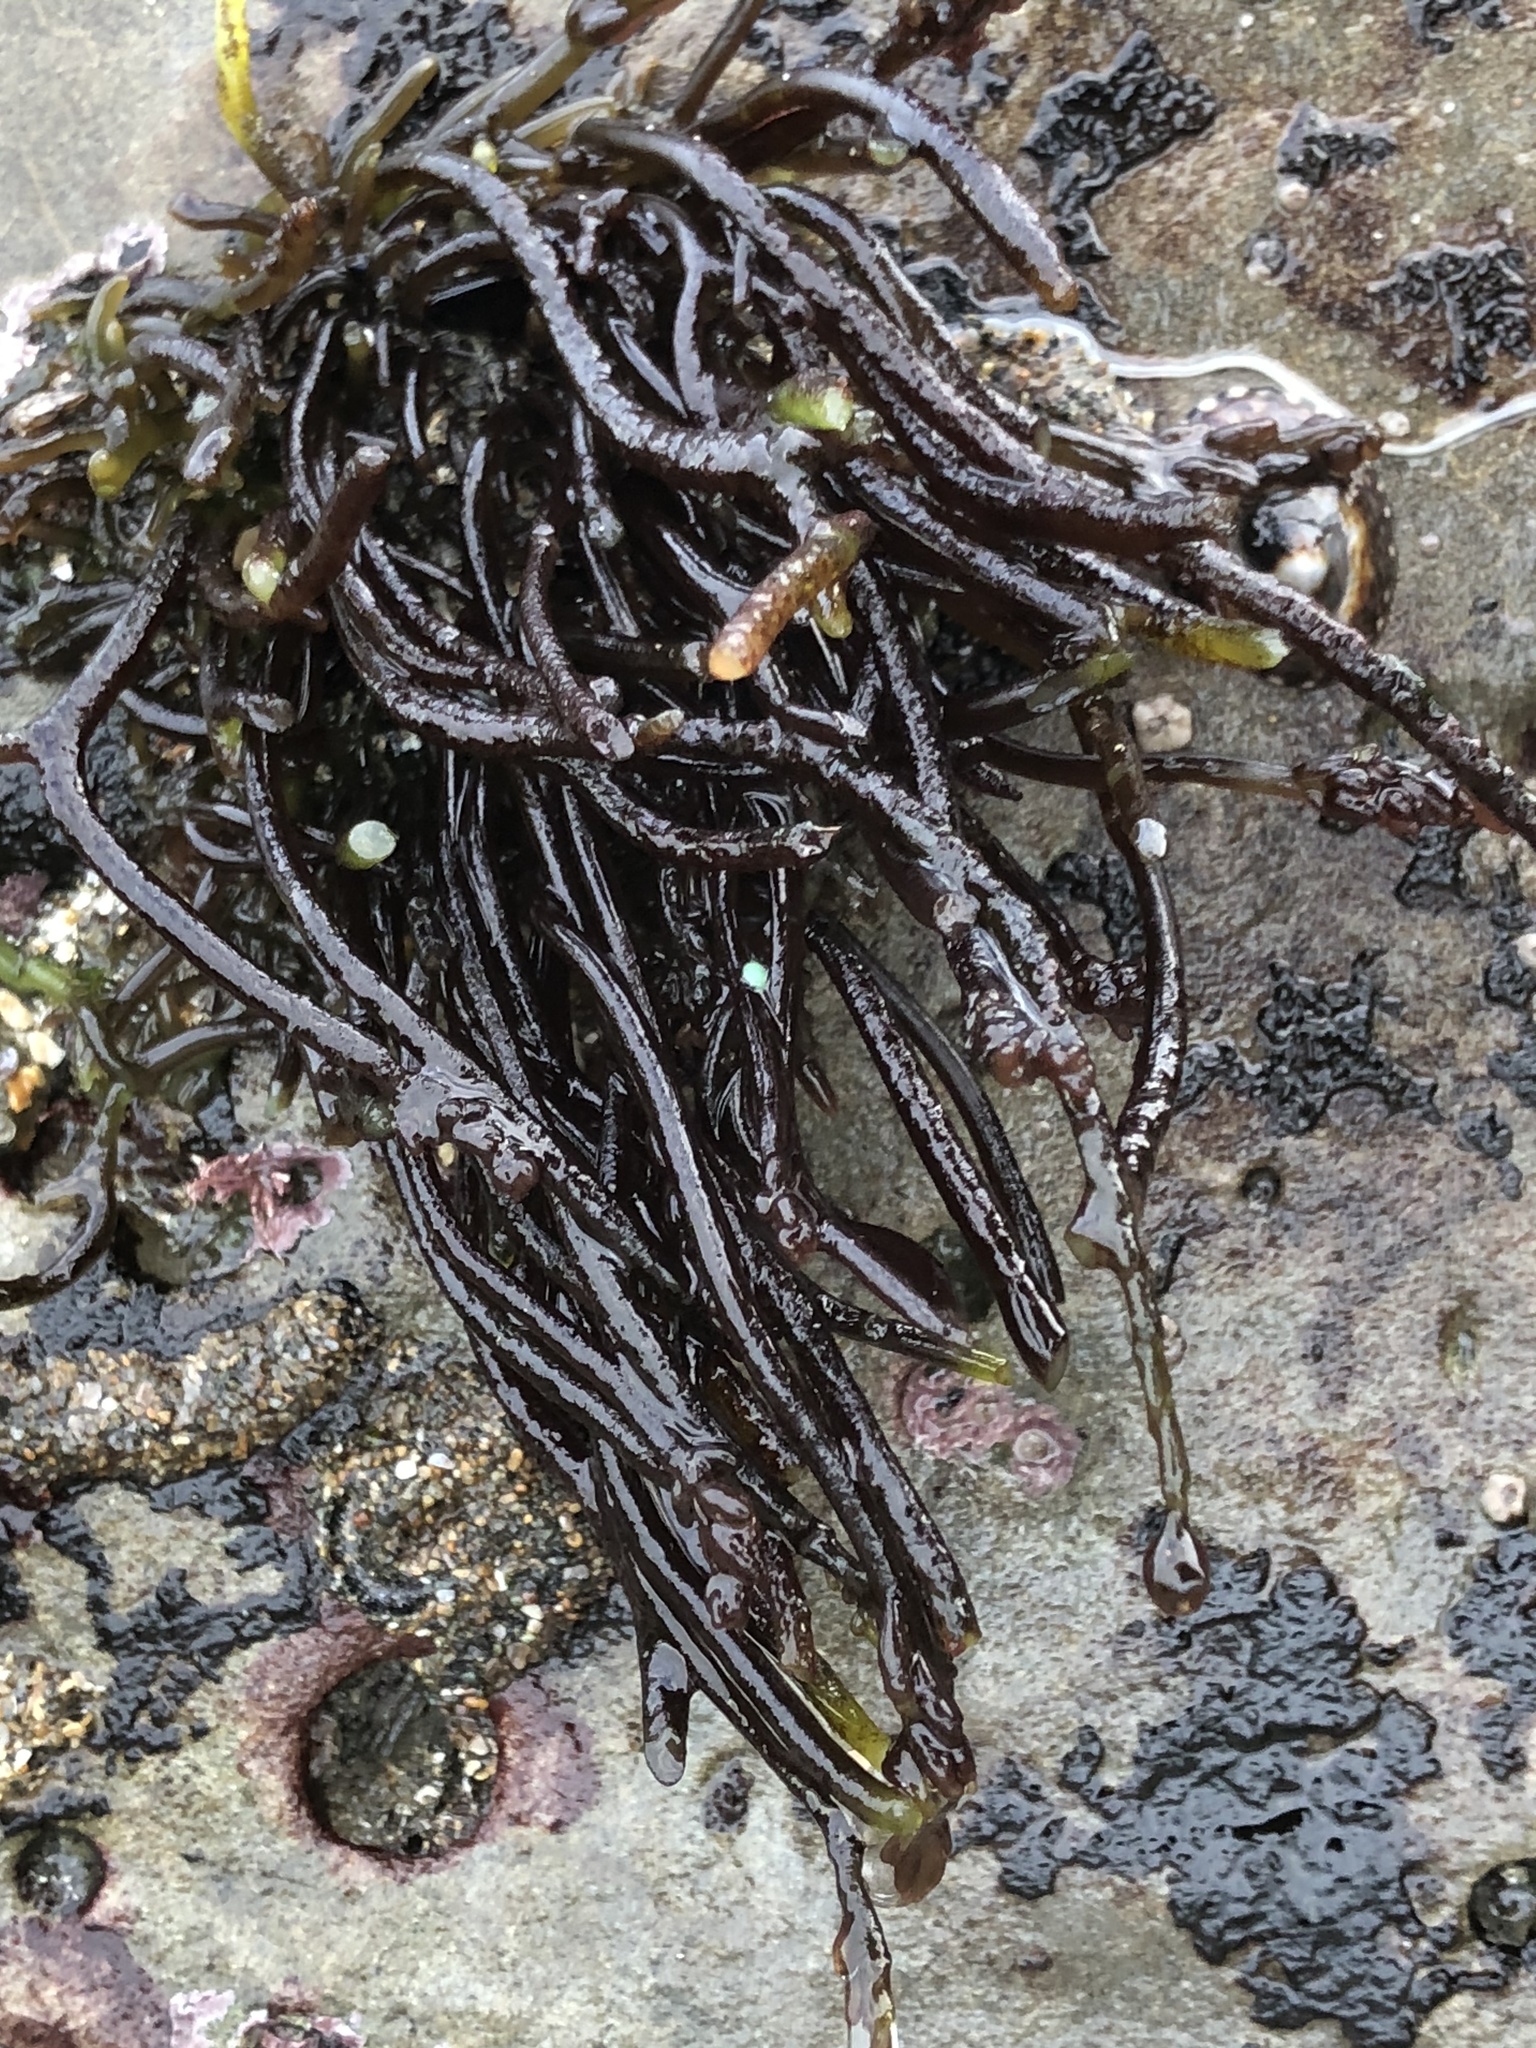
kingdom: Plantae
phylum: Rhodophyta
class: Florideophyceae
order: Rhodymeniales
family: Champiaceae
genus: Neogastroclonium
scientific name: Neogastroclonium subarticulatum
